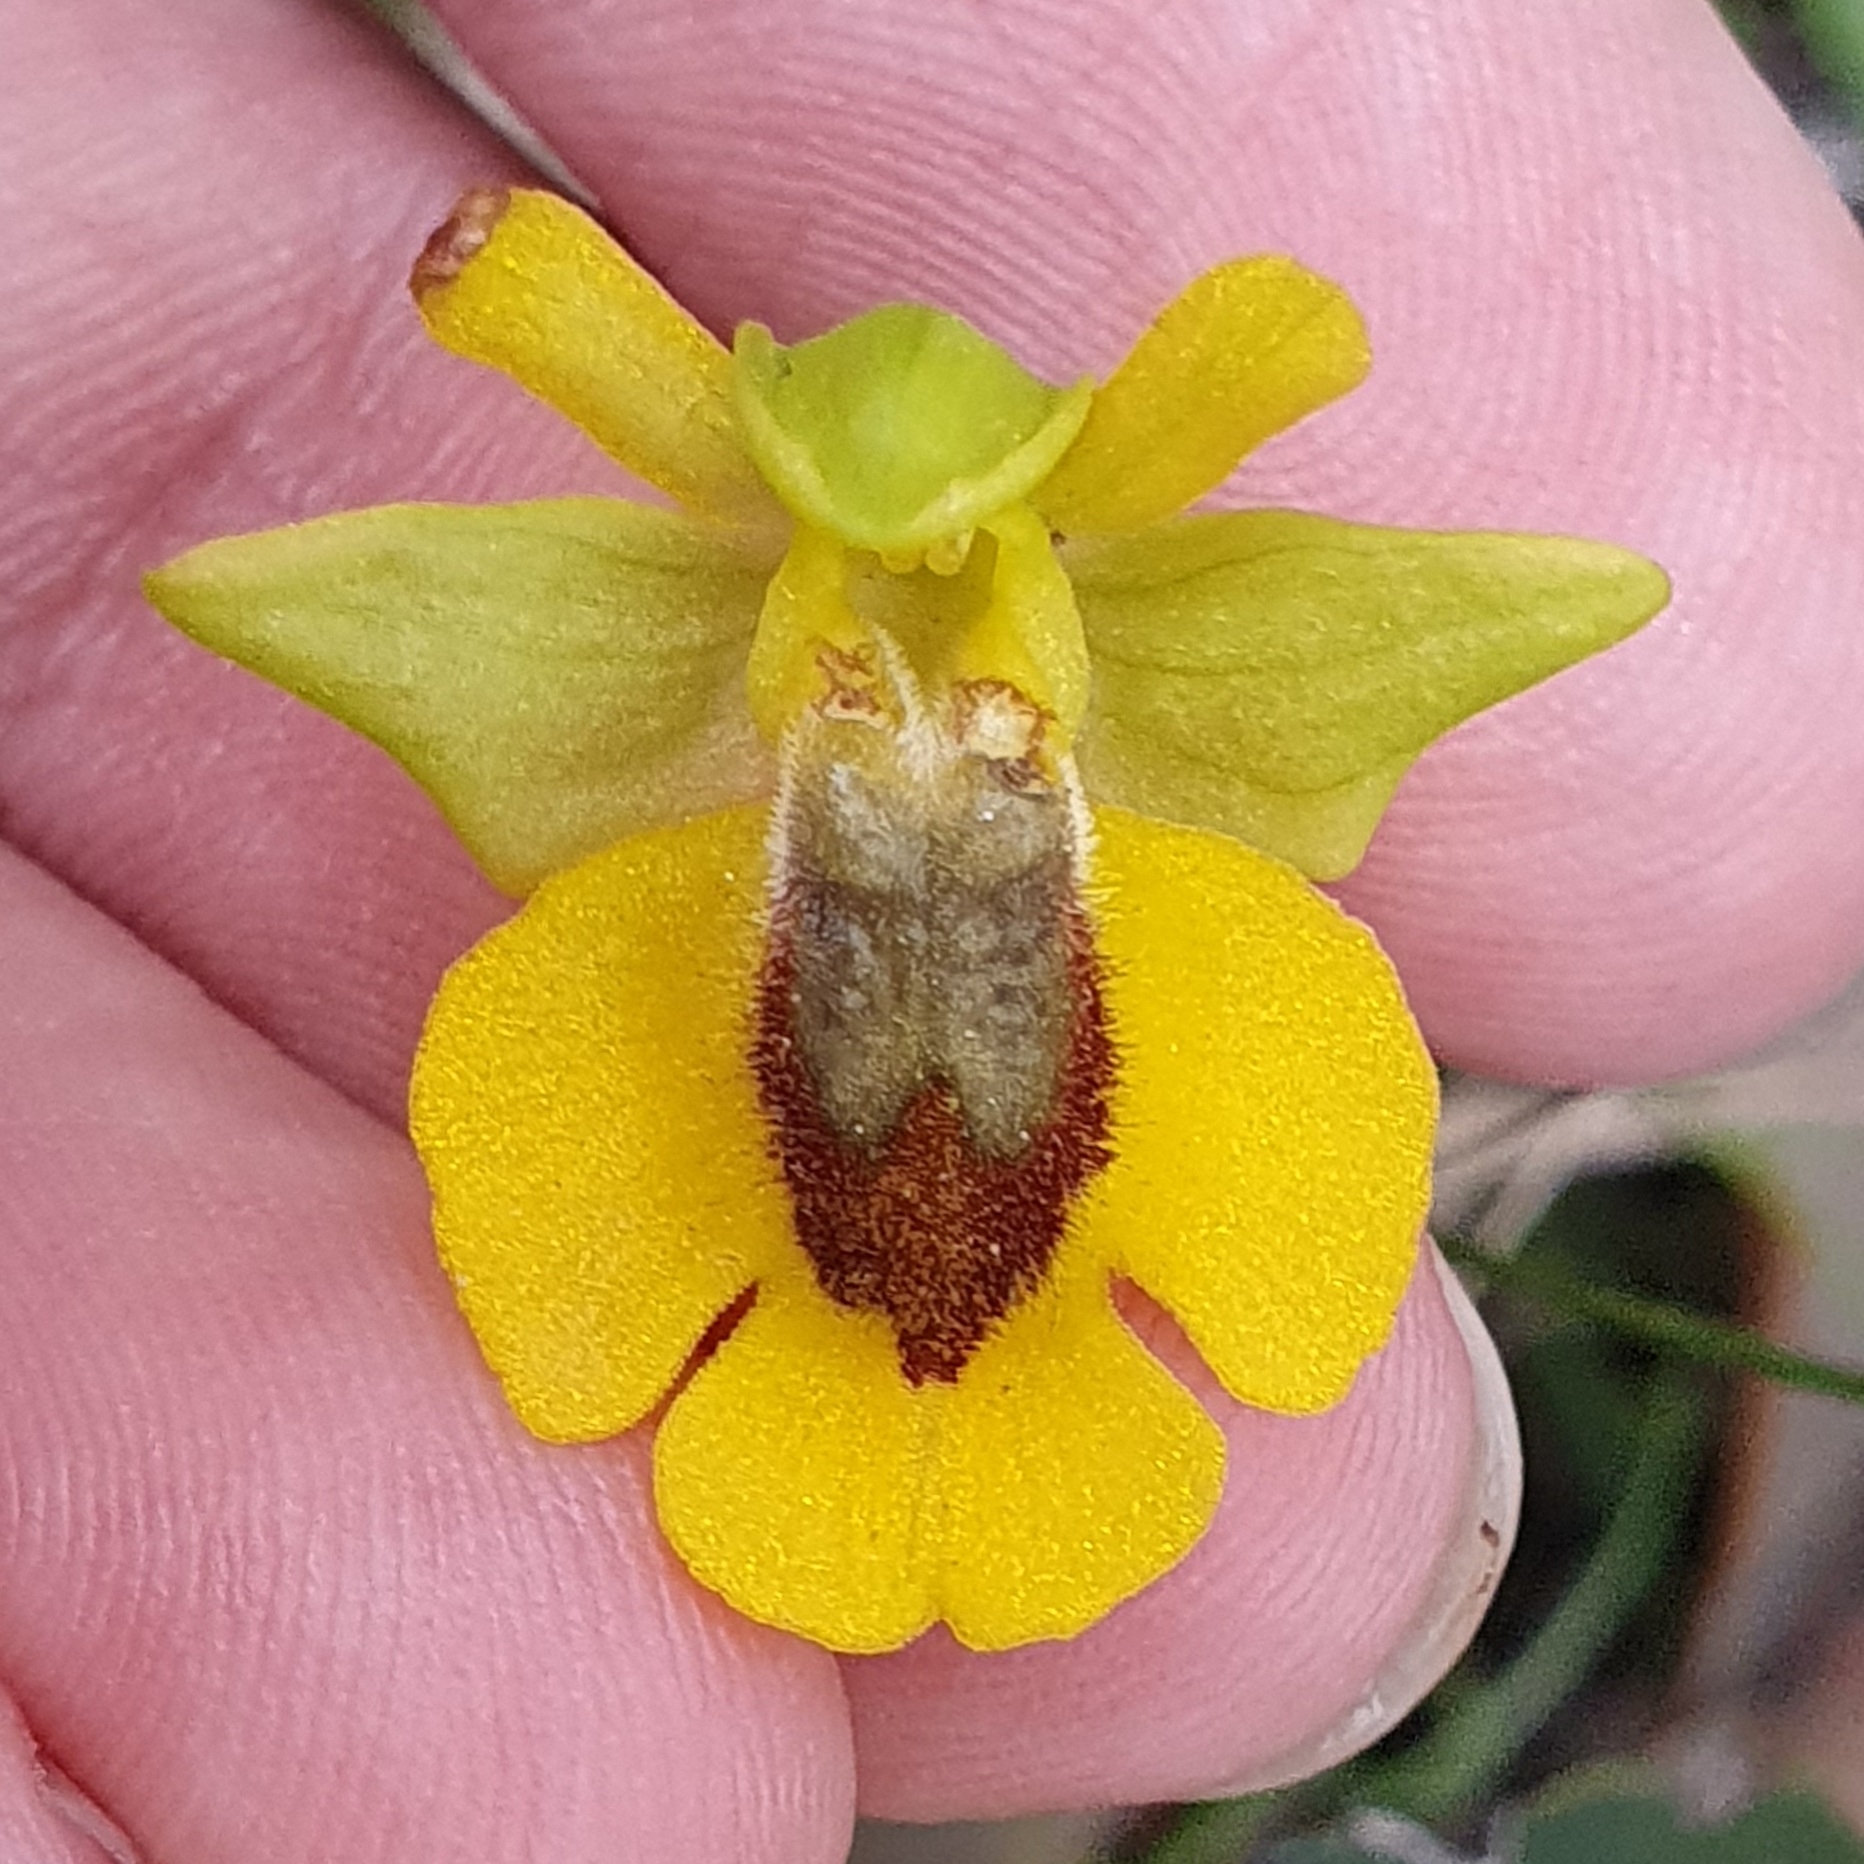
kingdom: Plantae
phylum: Tracheophyta
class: Liliopsida
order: Asparagales
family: Orchidaceae
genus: Ophrys
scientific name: Ophrys lutea
